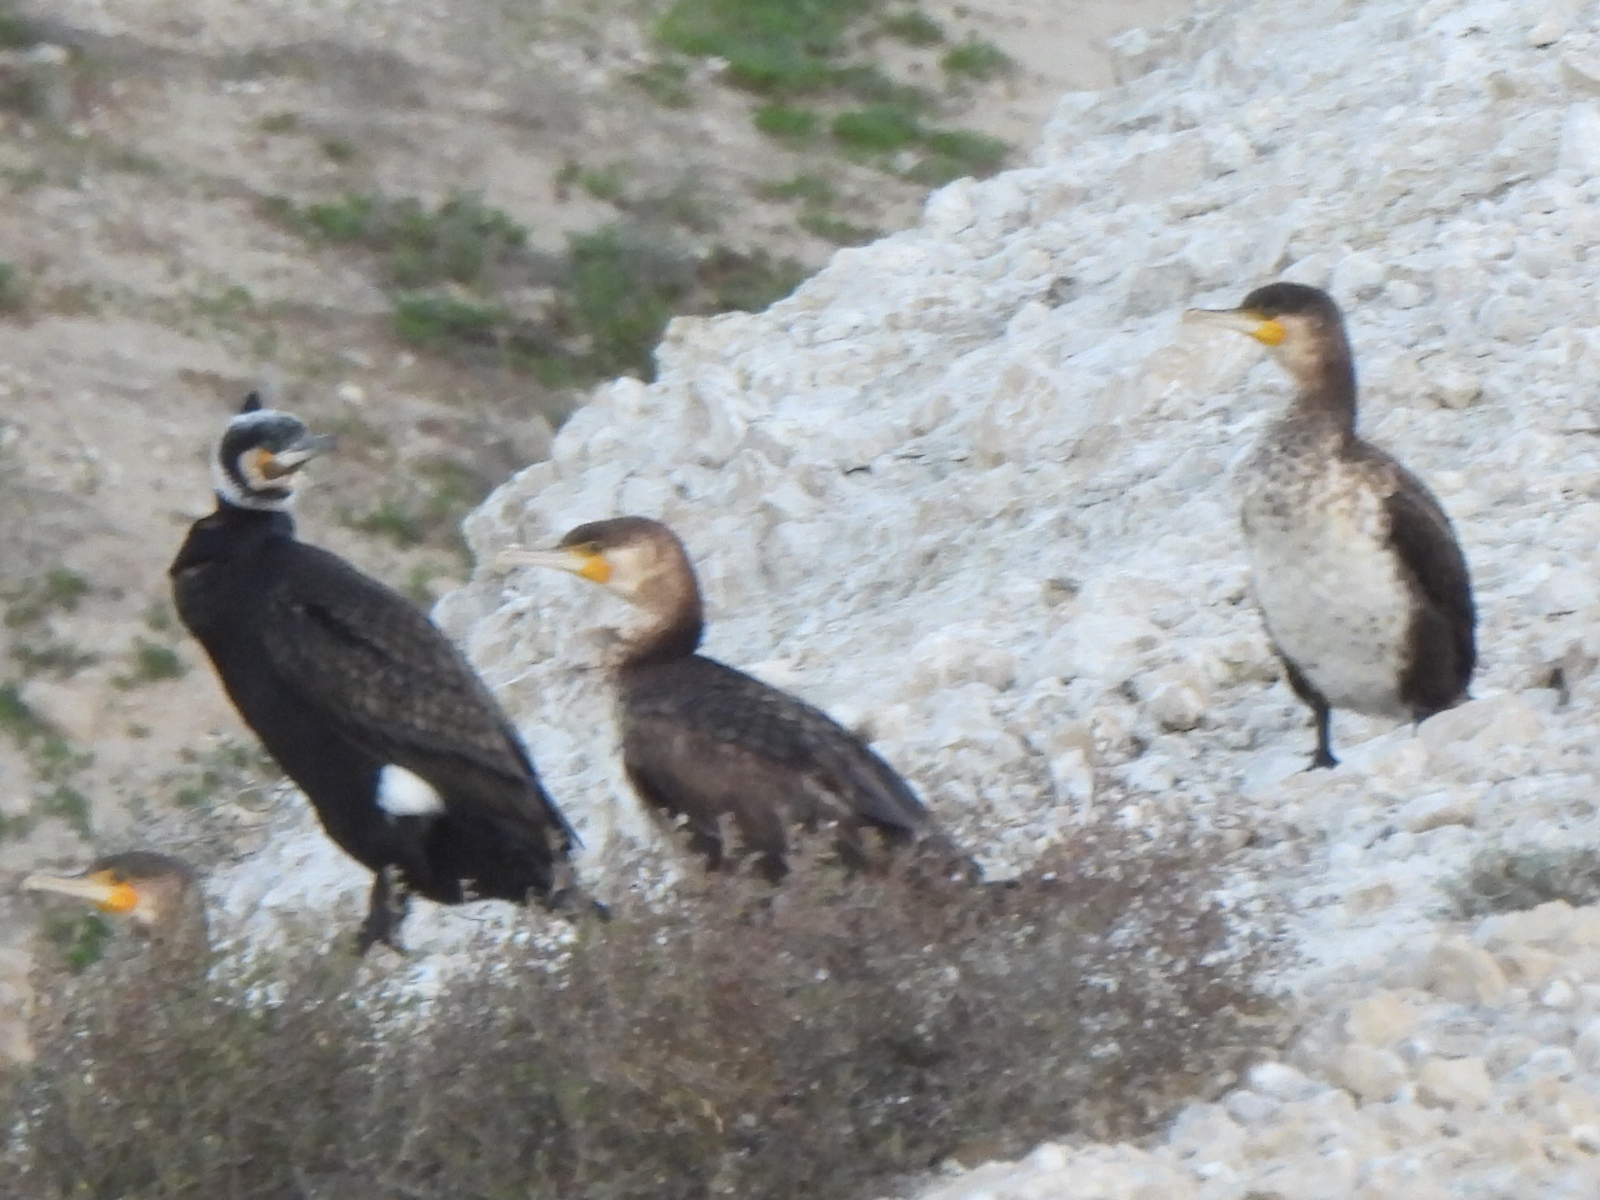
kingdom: Animalia
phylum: Chordata
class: Aves
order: Suliformes
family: Phalacrocoracidae
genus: Phalacrocorax
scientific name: Phalacrocorax carbo
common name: Great cormorant
